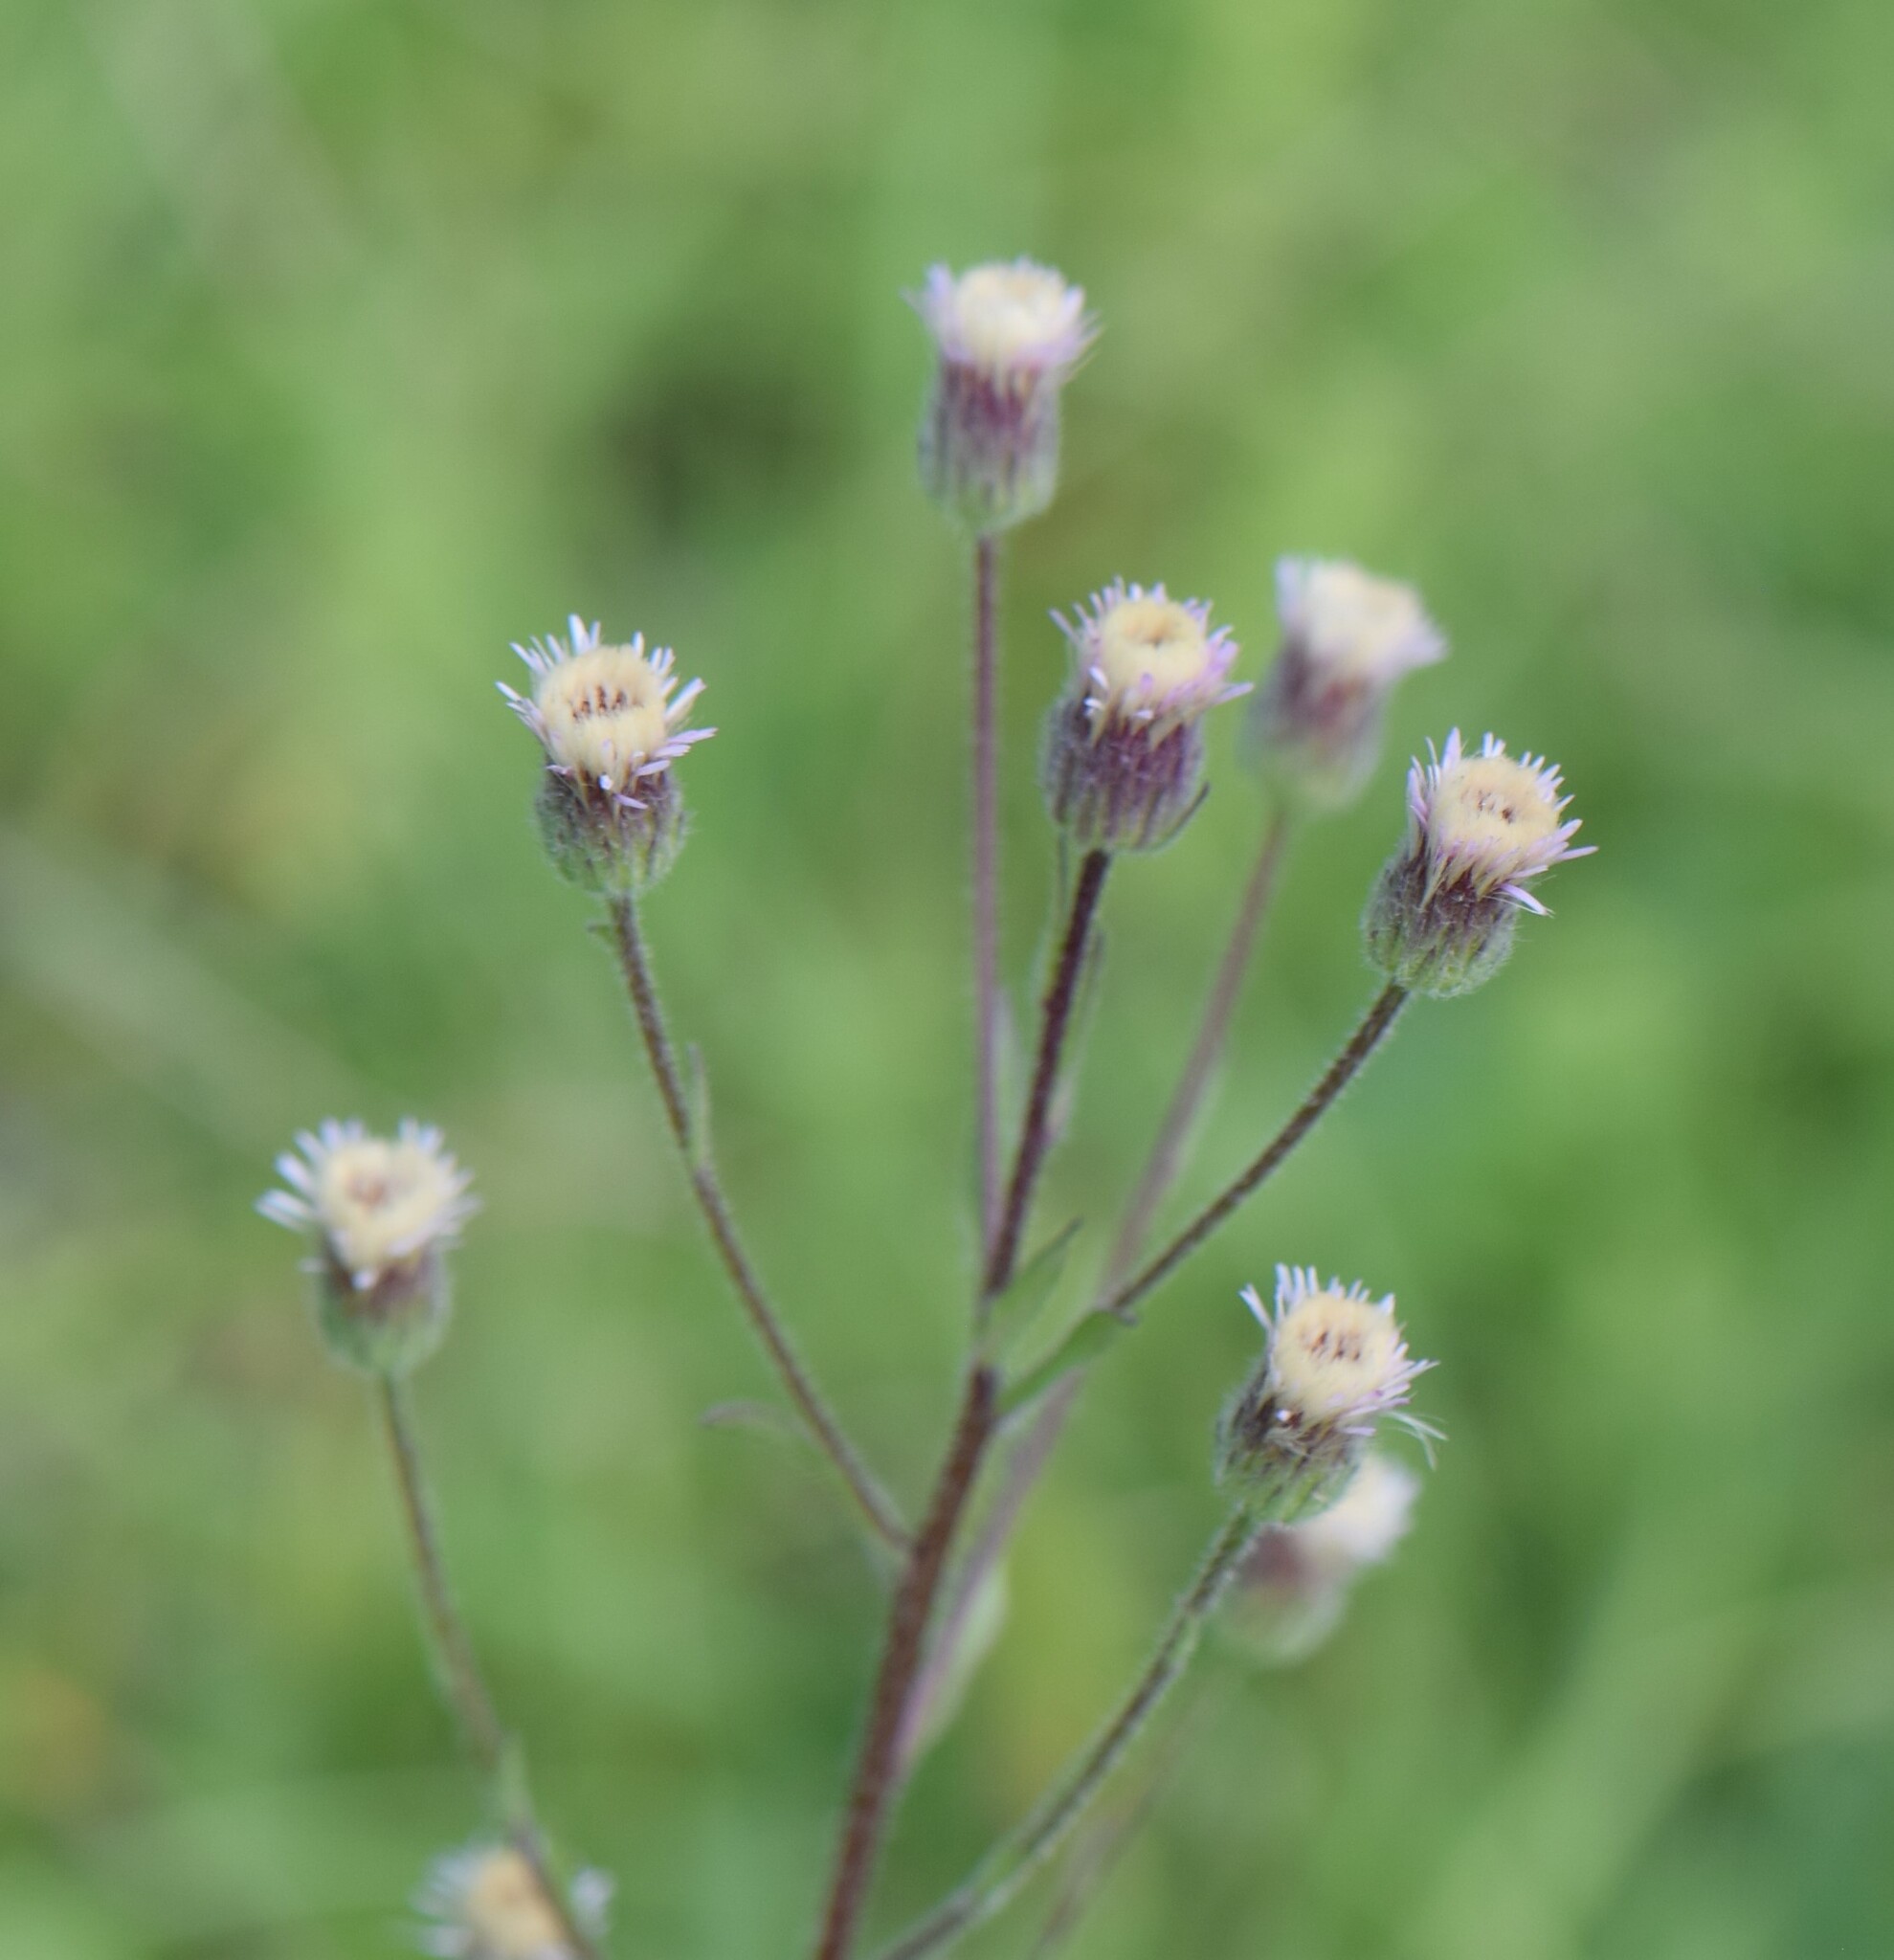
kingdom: Plantae
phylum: Tracheophyta
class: Magnoliopsida
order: Asterales
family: Asteraceae
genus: Erigeron
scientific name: Erigeron acris
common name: Blue fleabane
